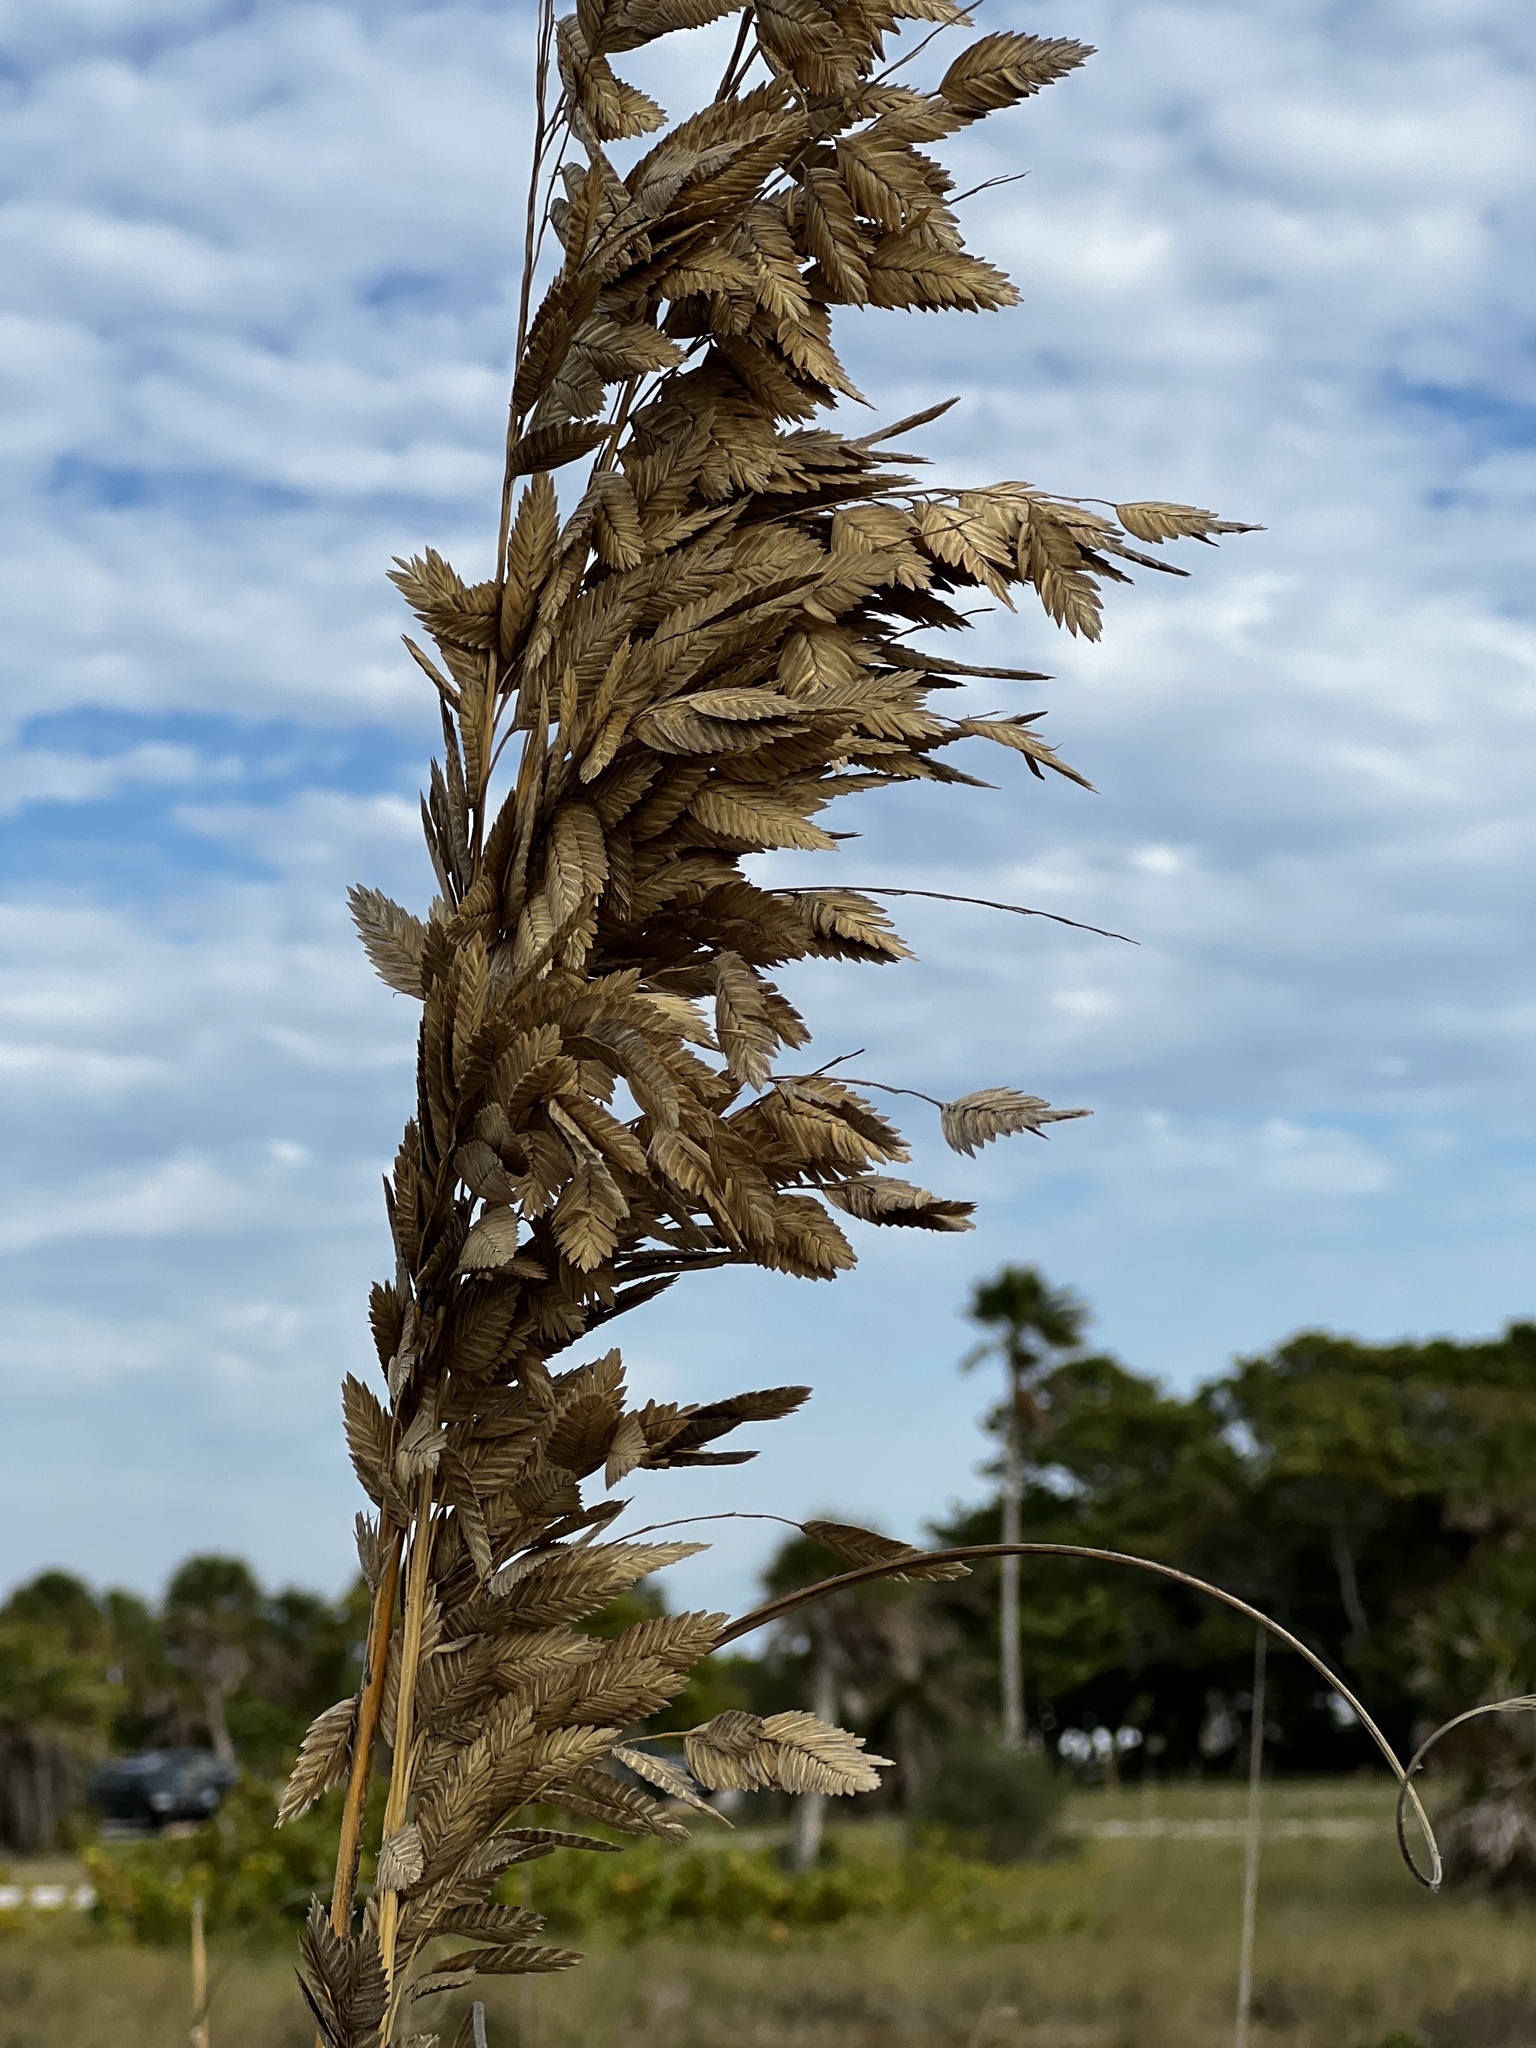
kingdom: Plantae
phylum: Tracheophyta
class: Liliopsida
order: Poales
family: Poaceae
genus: Uniola
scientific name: Uniola paniculata
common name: Seaside-oats
